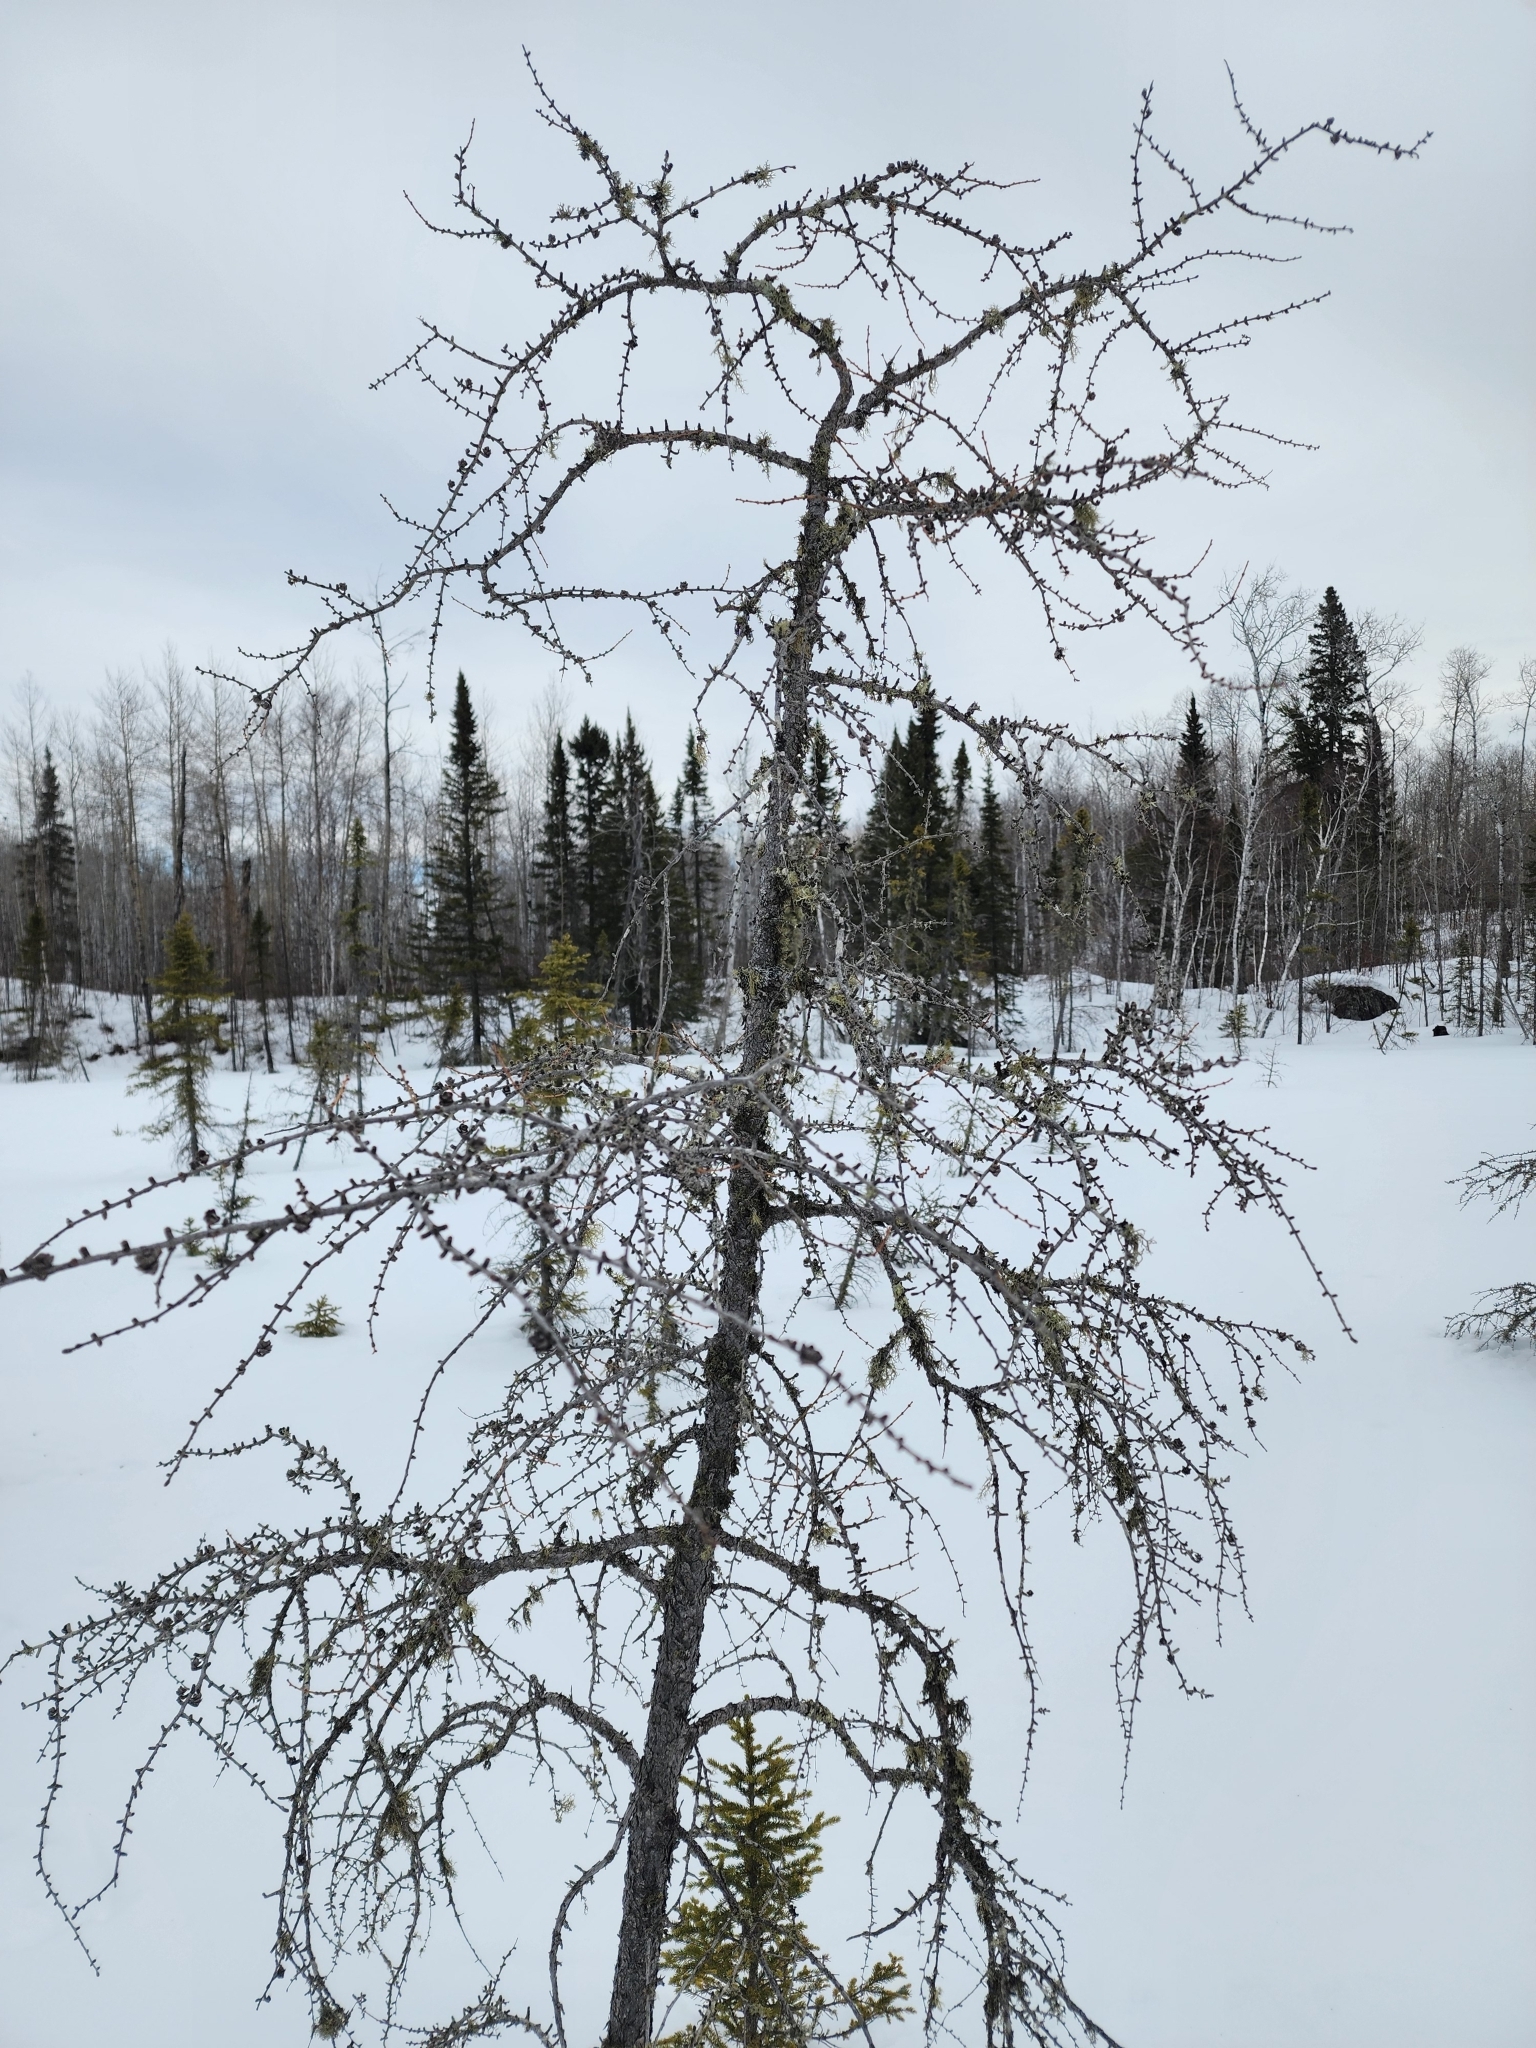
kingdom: Plantae
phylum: Tracheophyta
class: Pinopsida
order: Pinales
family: Pinaceae
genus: Larix
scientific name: Larix laricina
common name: American larch
